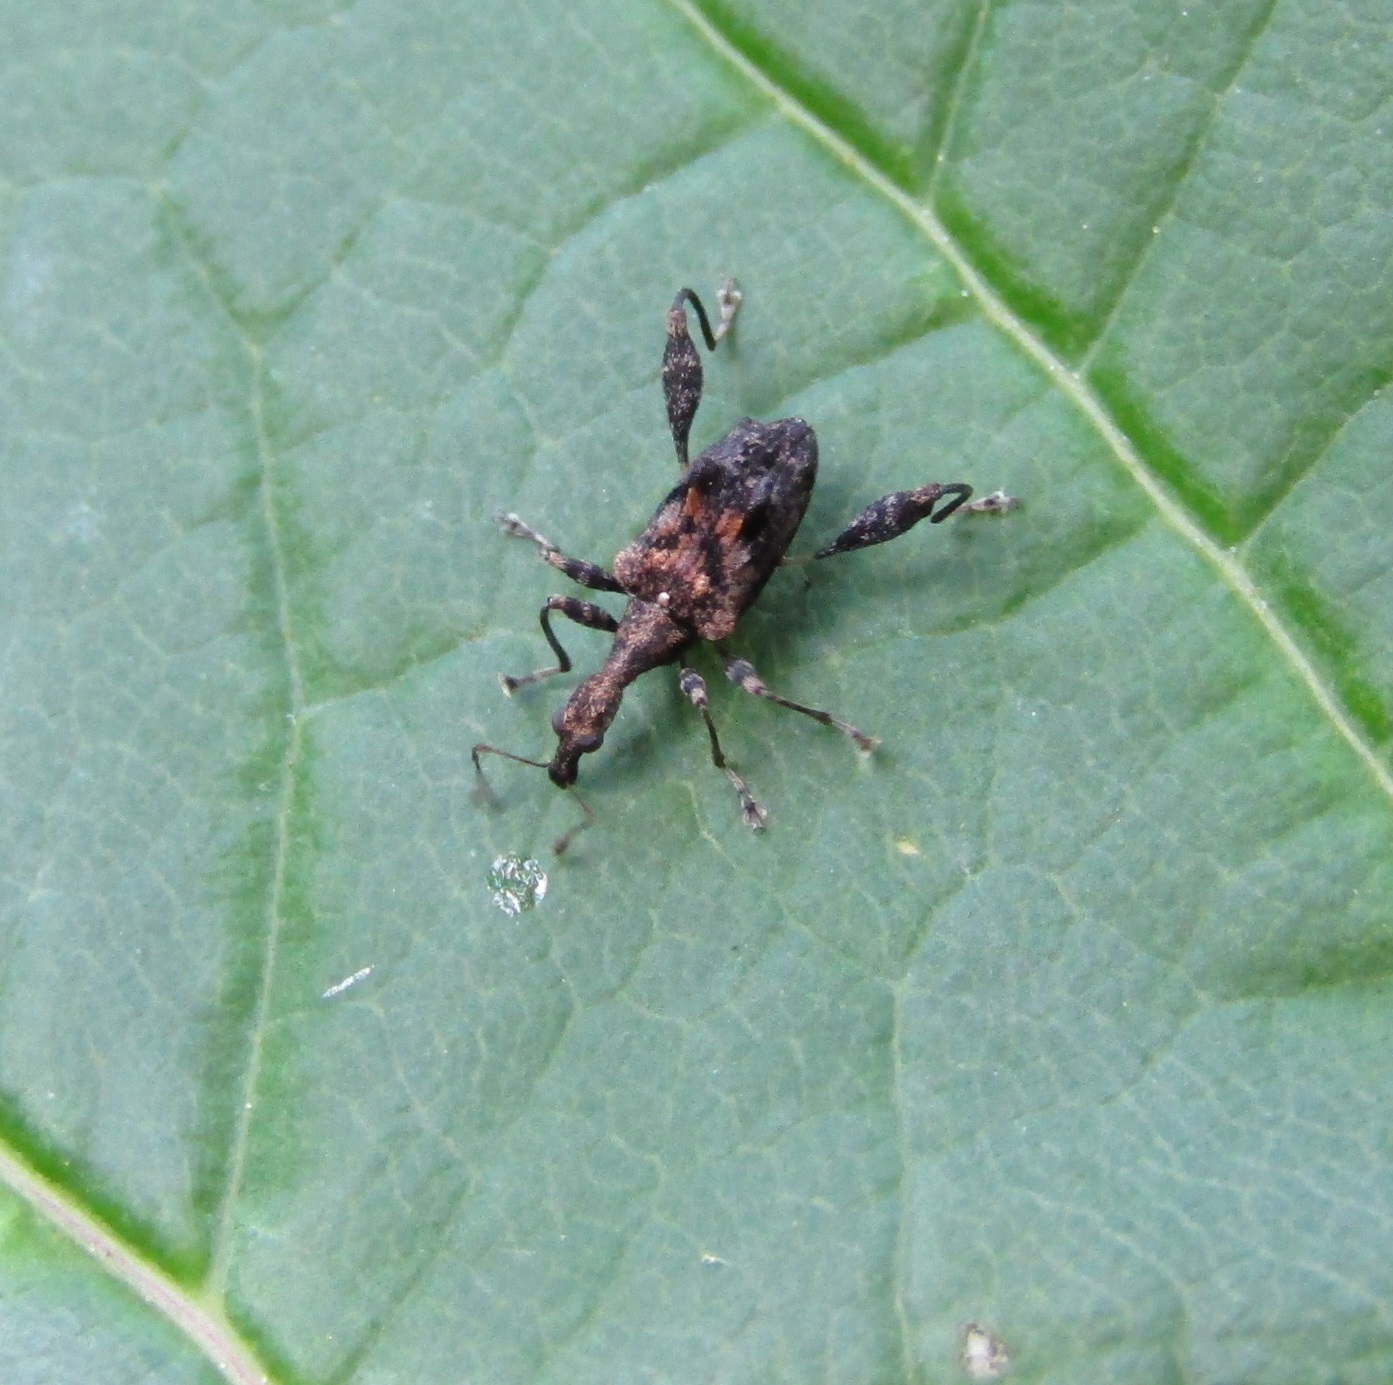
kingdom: Animalia
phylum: Arthropoda
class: Insecta
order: Coleoptera
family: Curculionidae
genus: Stephanorhynchus
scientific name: Stephanorhynchus lawsoni
